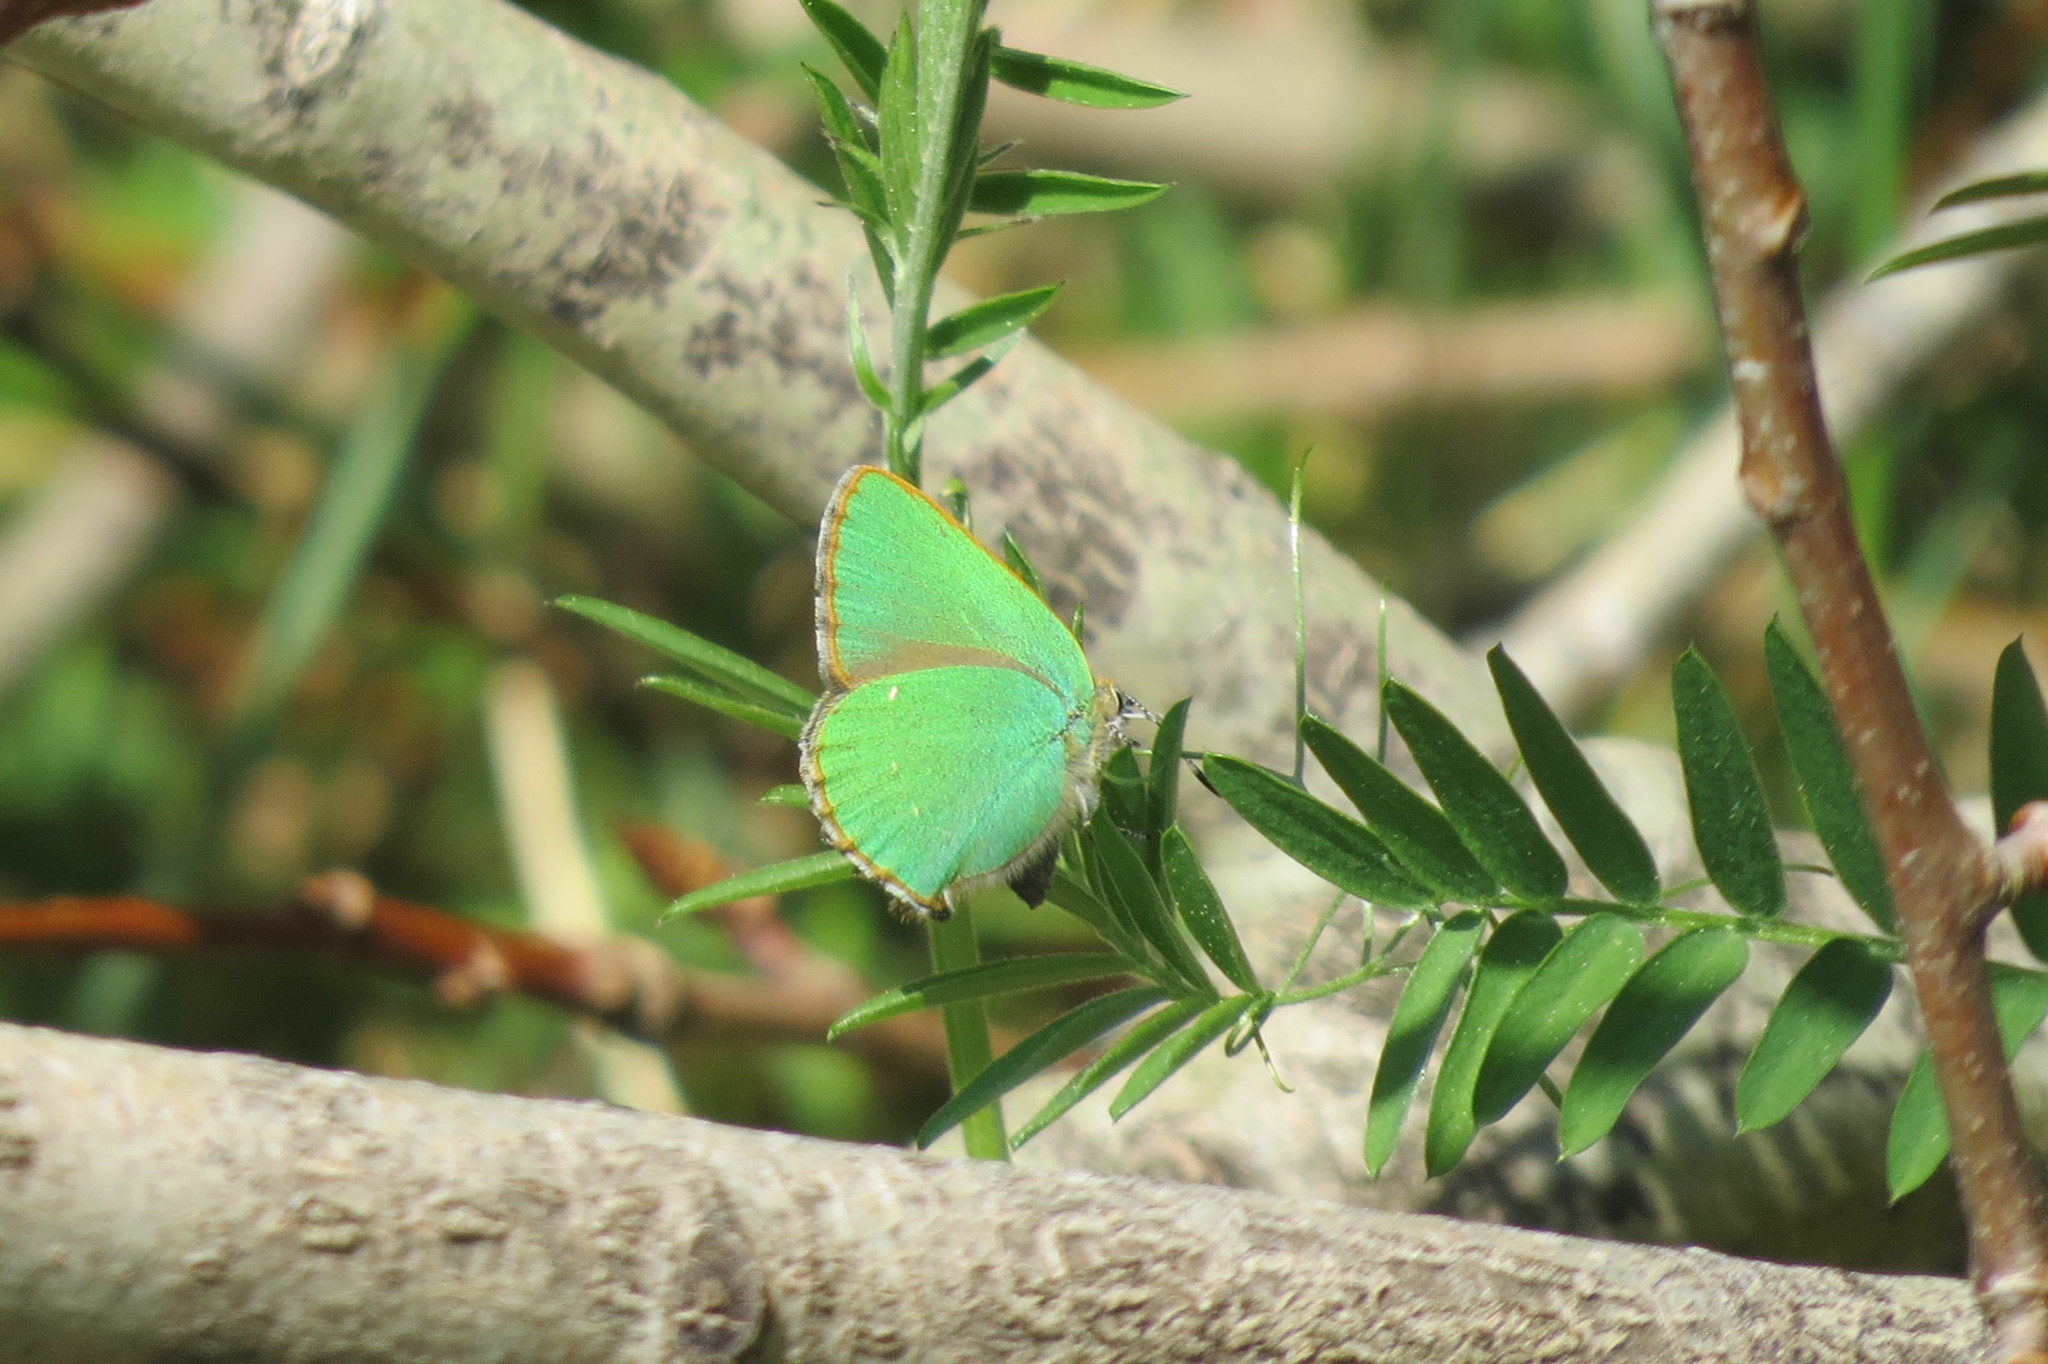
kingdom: Animalia
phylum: Arthropoda
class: Insecta
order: Lepidoptera
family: Lycaenidae
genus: Callophrys
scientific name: Callophrys rubi
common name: Green hairstreak
